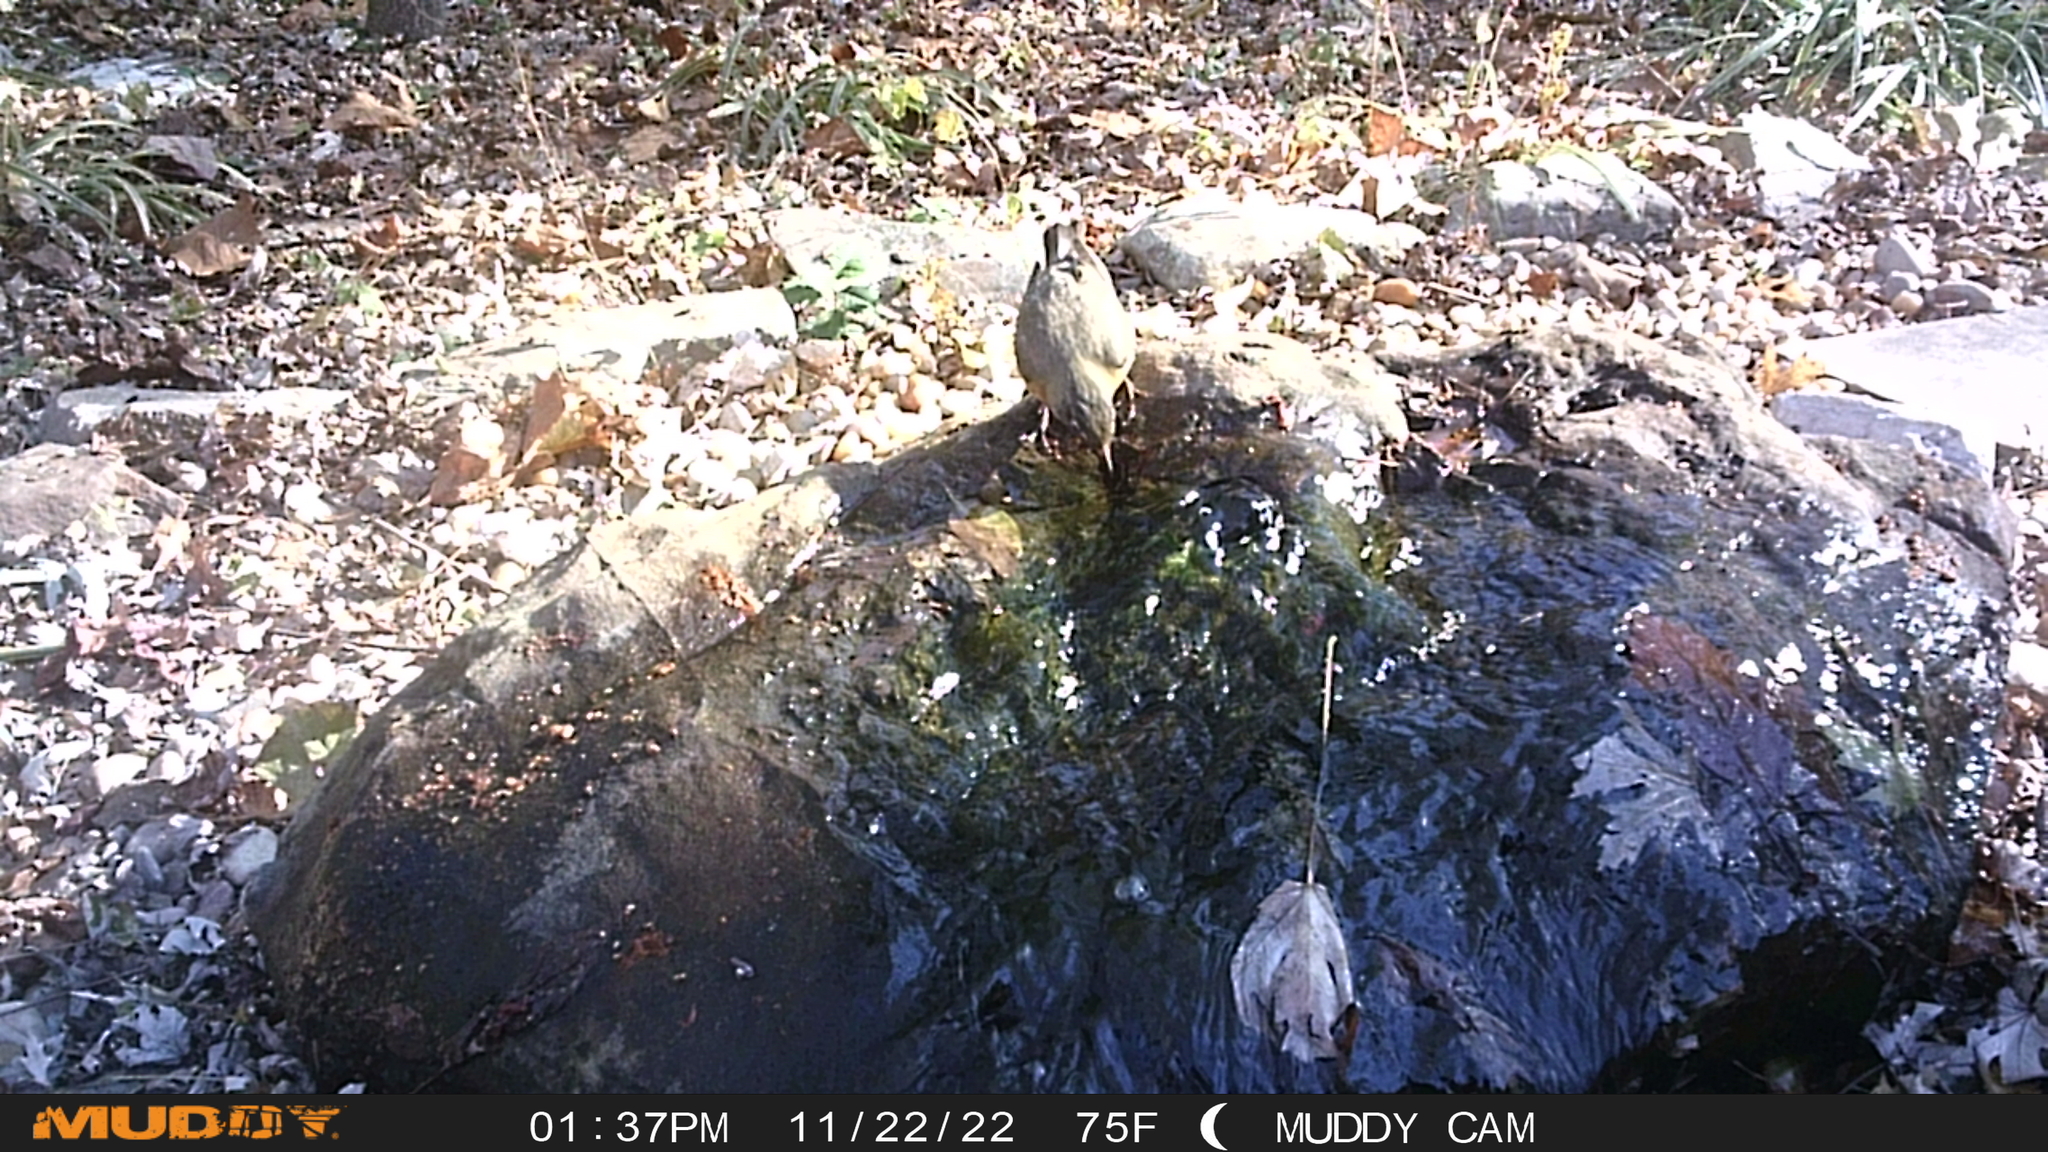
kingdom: Animalia
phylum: Chordata
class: Aves
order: Passeriformes
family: Turdidae
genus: Turdus
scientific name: Turdus migratorius
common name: American robin
